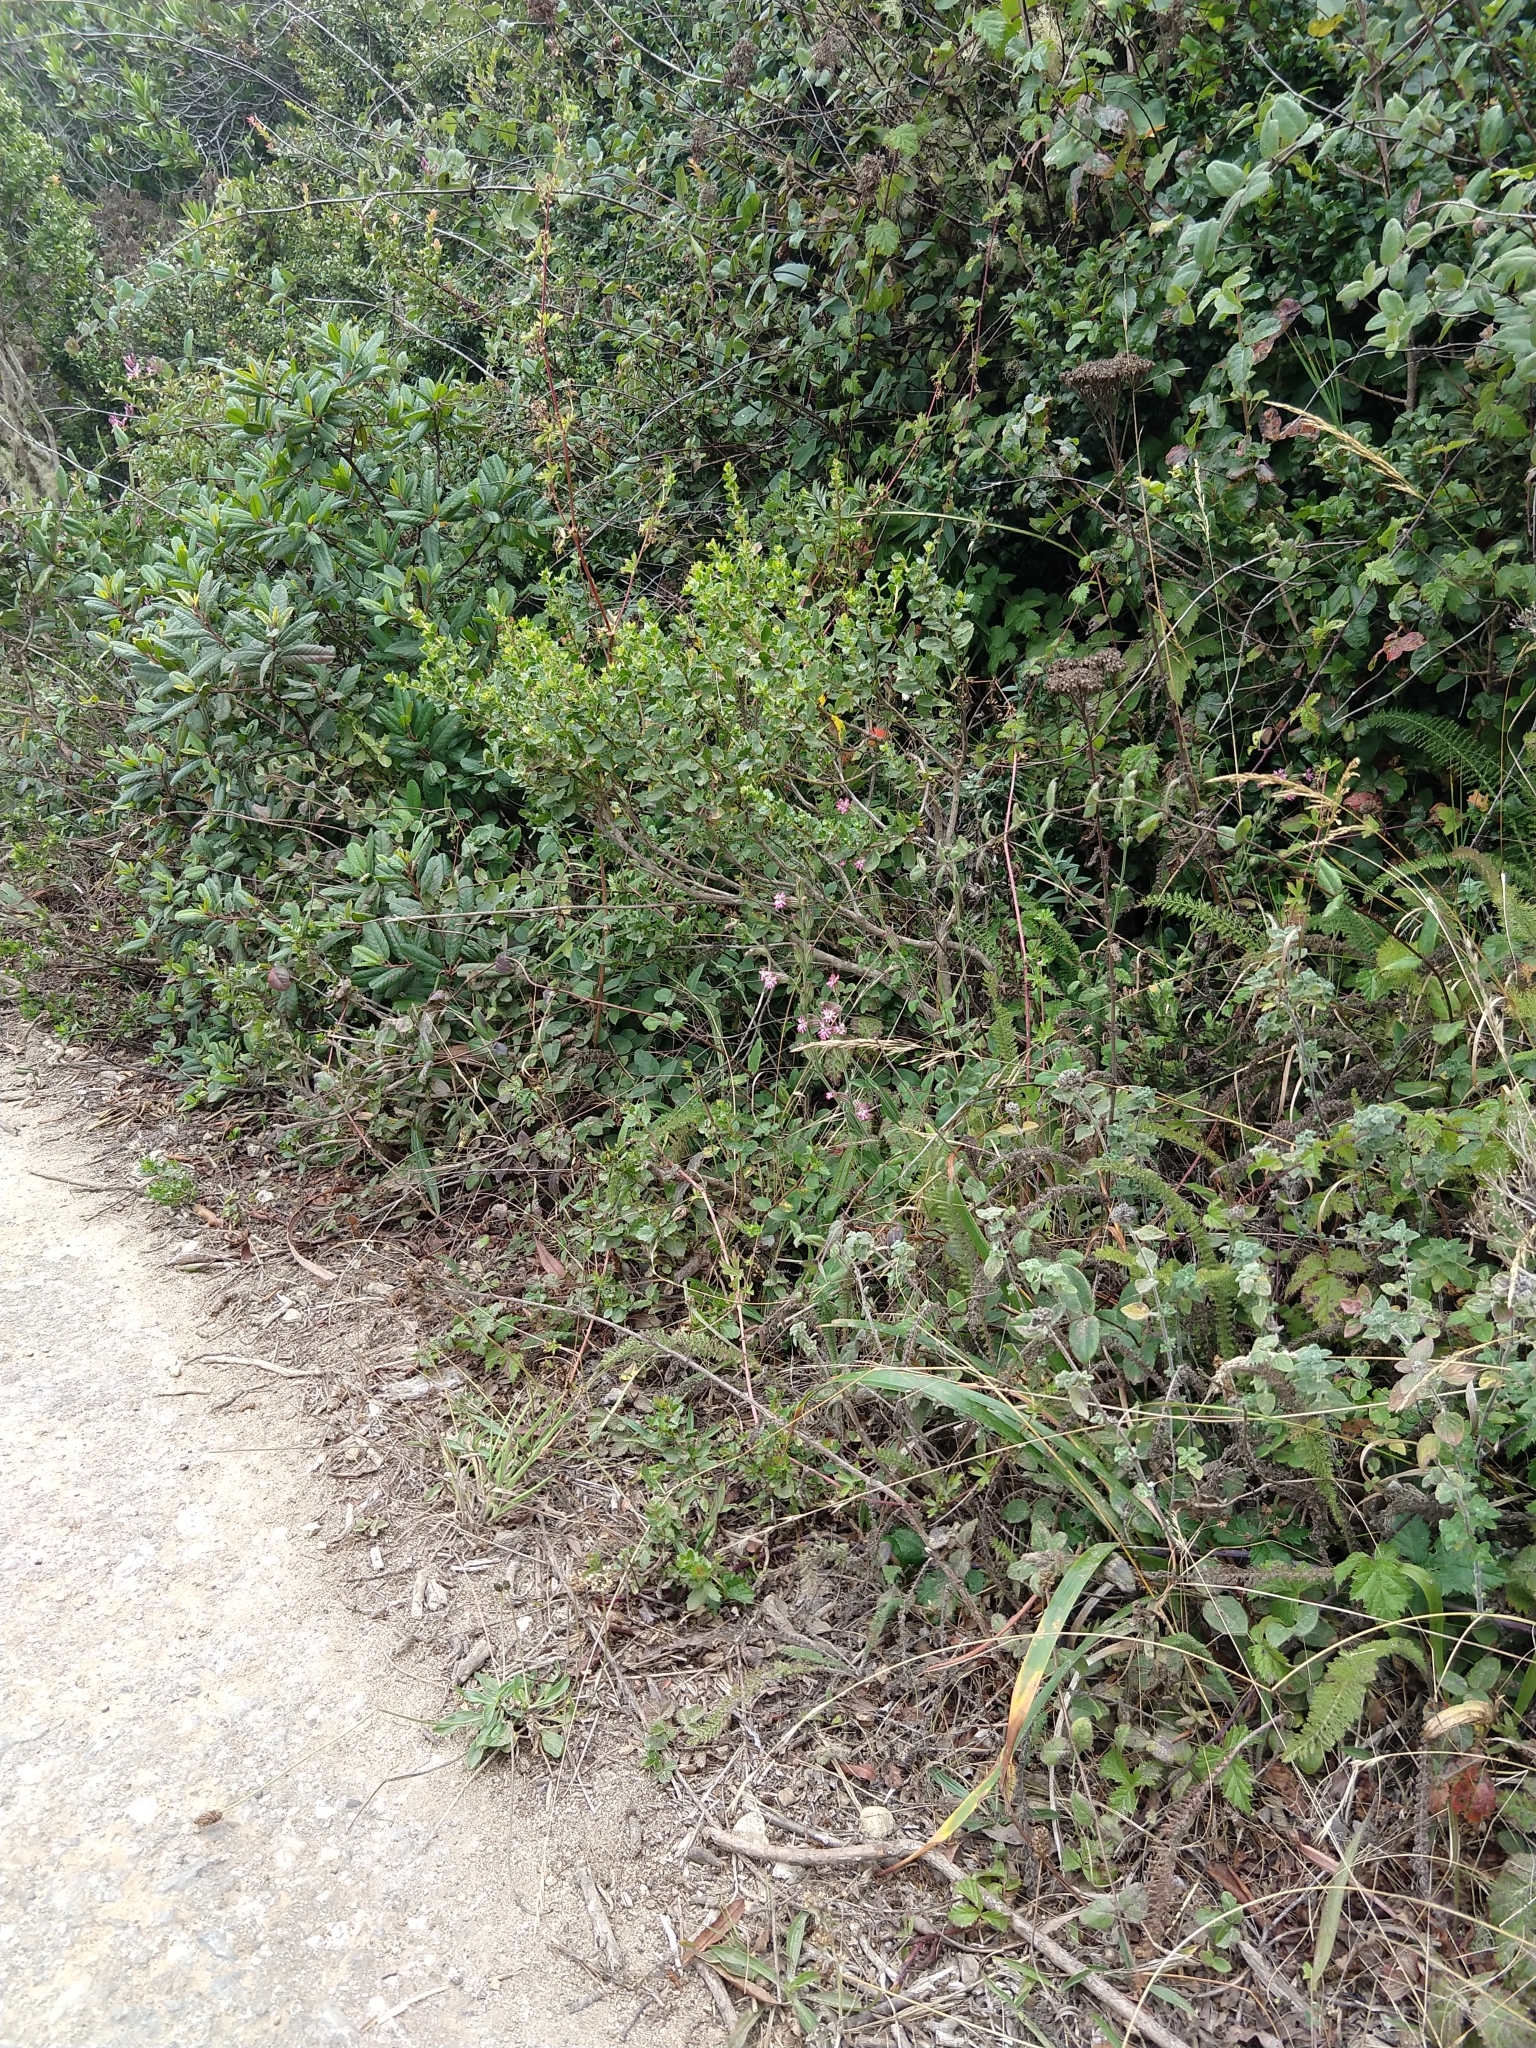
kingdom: Plantae
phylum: Tracheophyta
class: Magnoliopsida
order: Caryophyllales
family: Caryophyllaceae
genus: Silene
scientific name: Silene scouleri
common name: Scouler's campion
